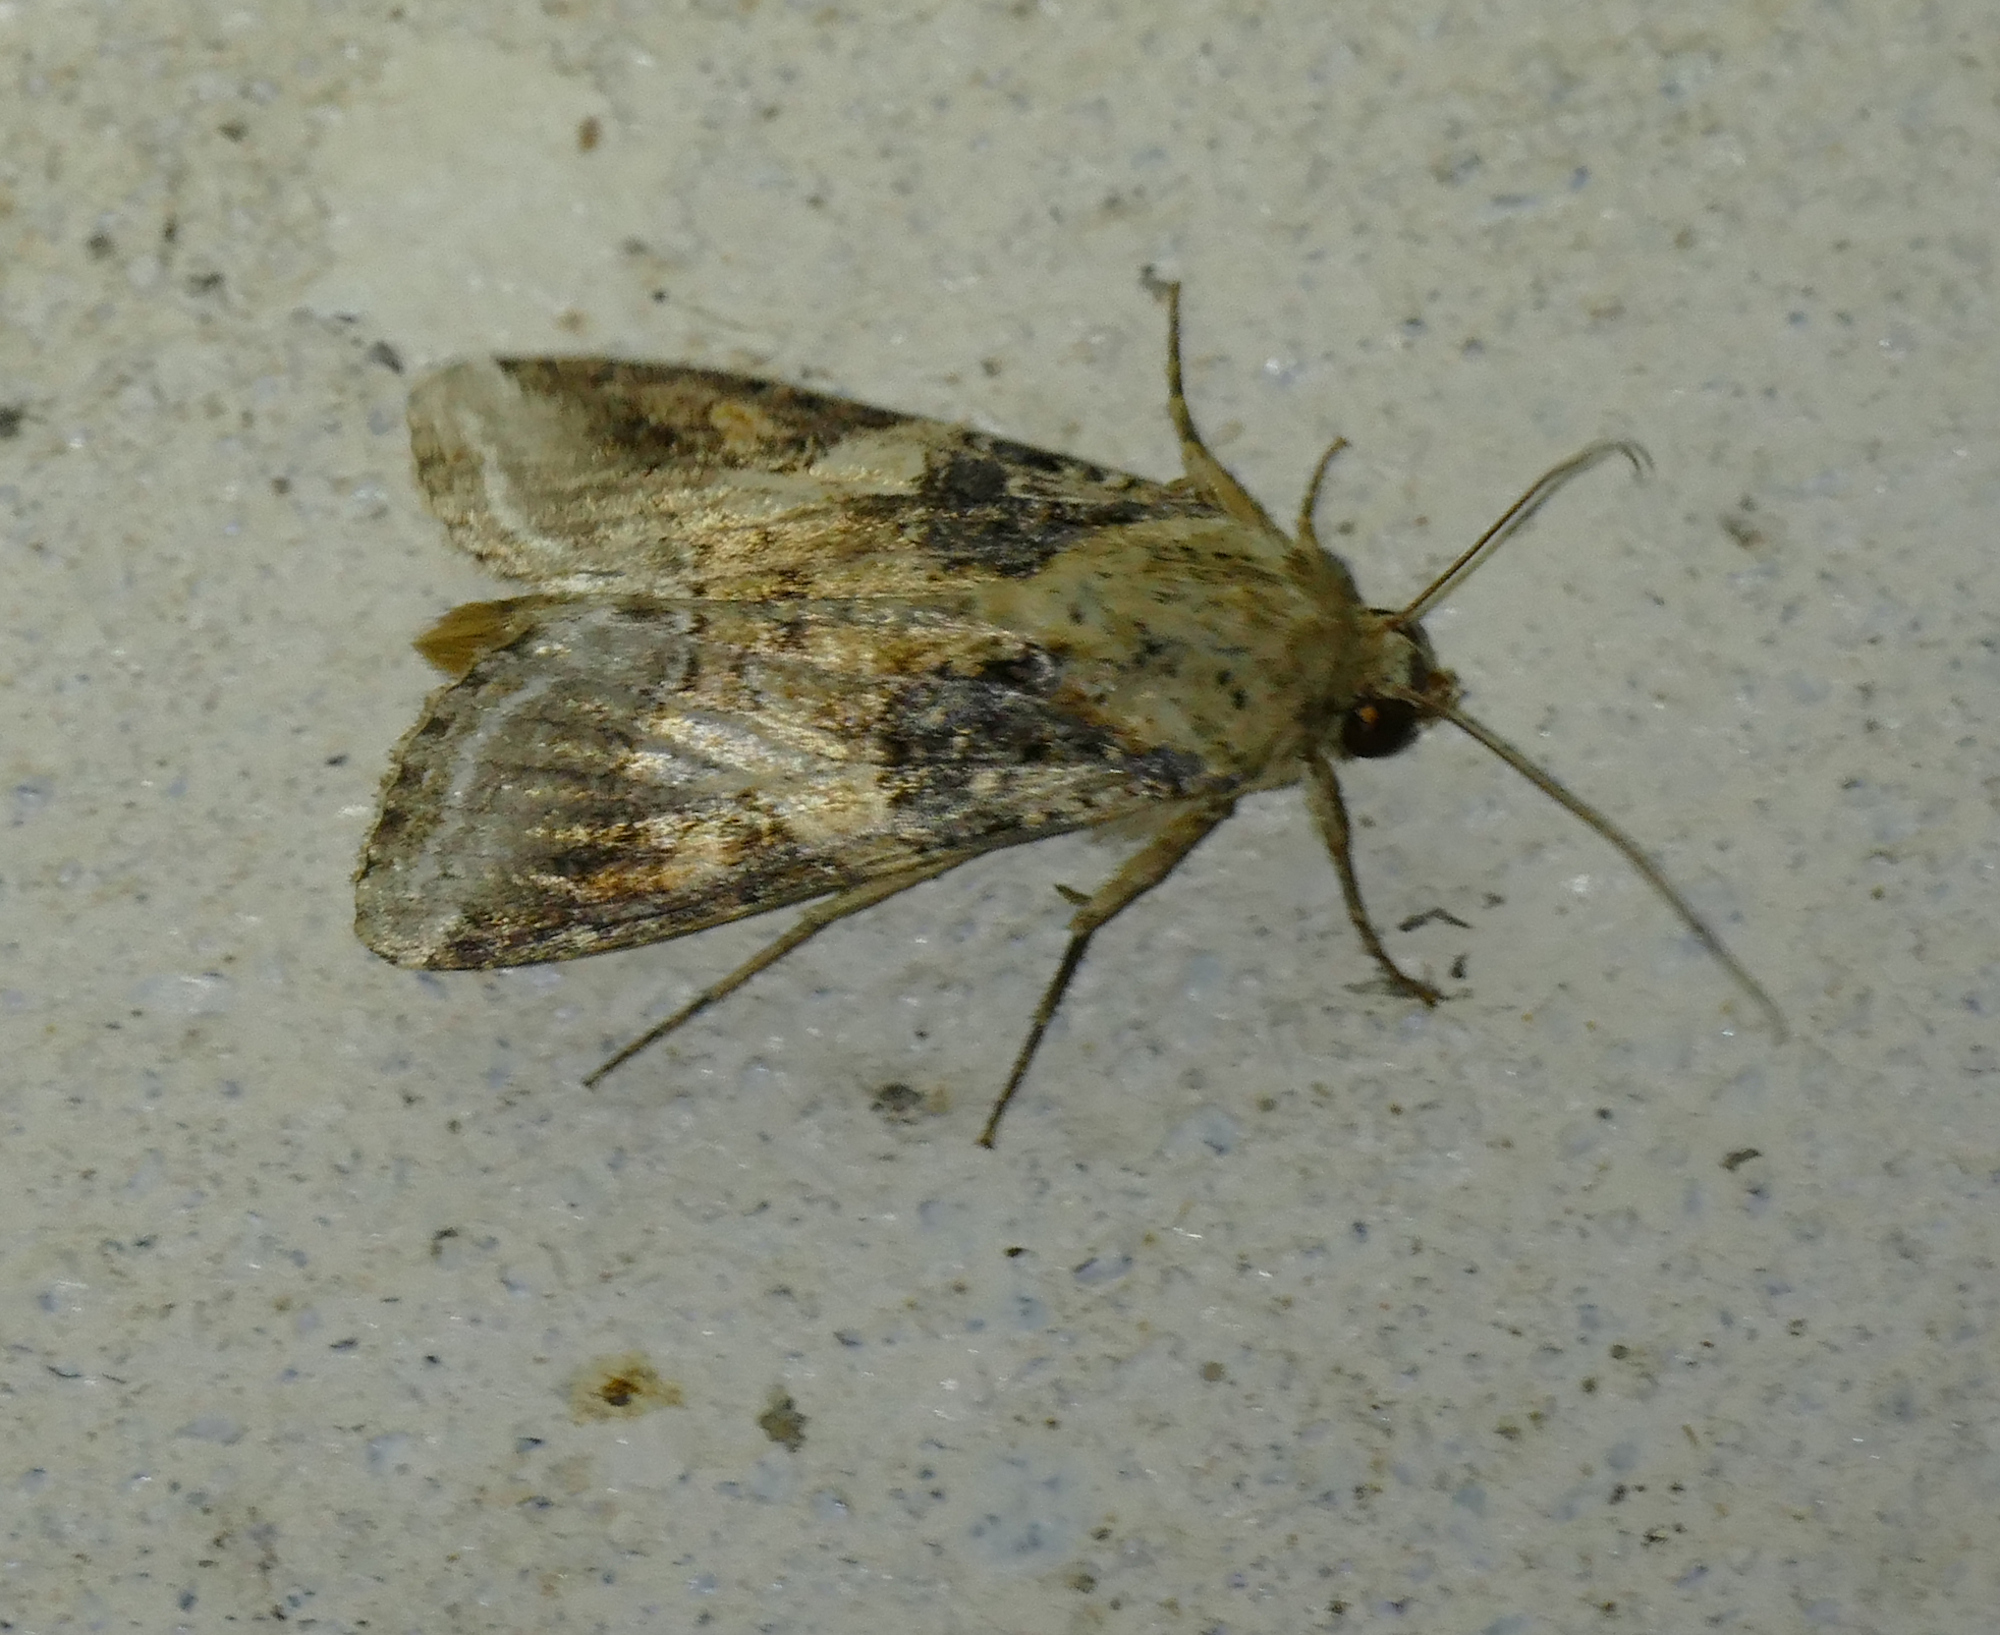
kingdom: Animalia
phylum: Arthropoda
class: Insecta
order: Lepidoptera
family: Noctuidae
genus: Spodoptera
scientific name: Spodoptera latifascia
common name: Velvet armyworm moth
